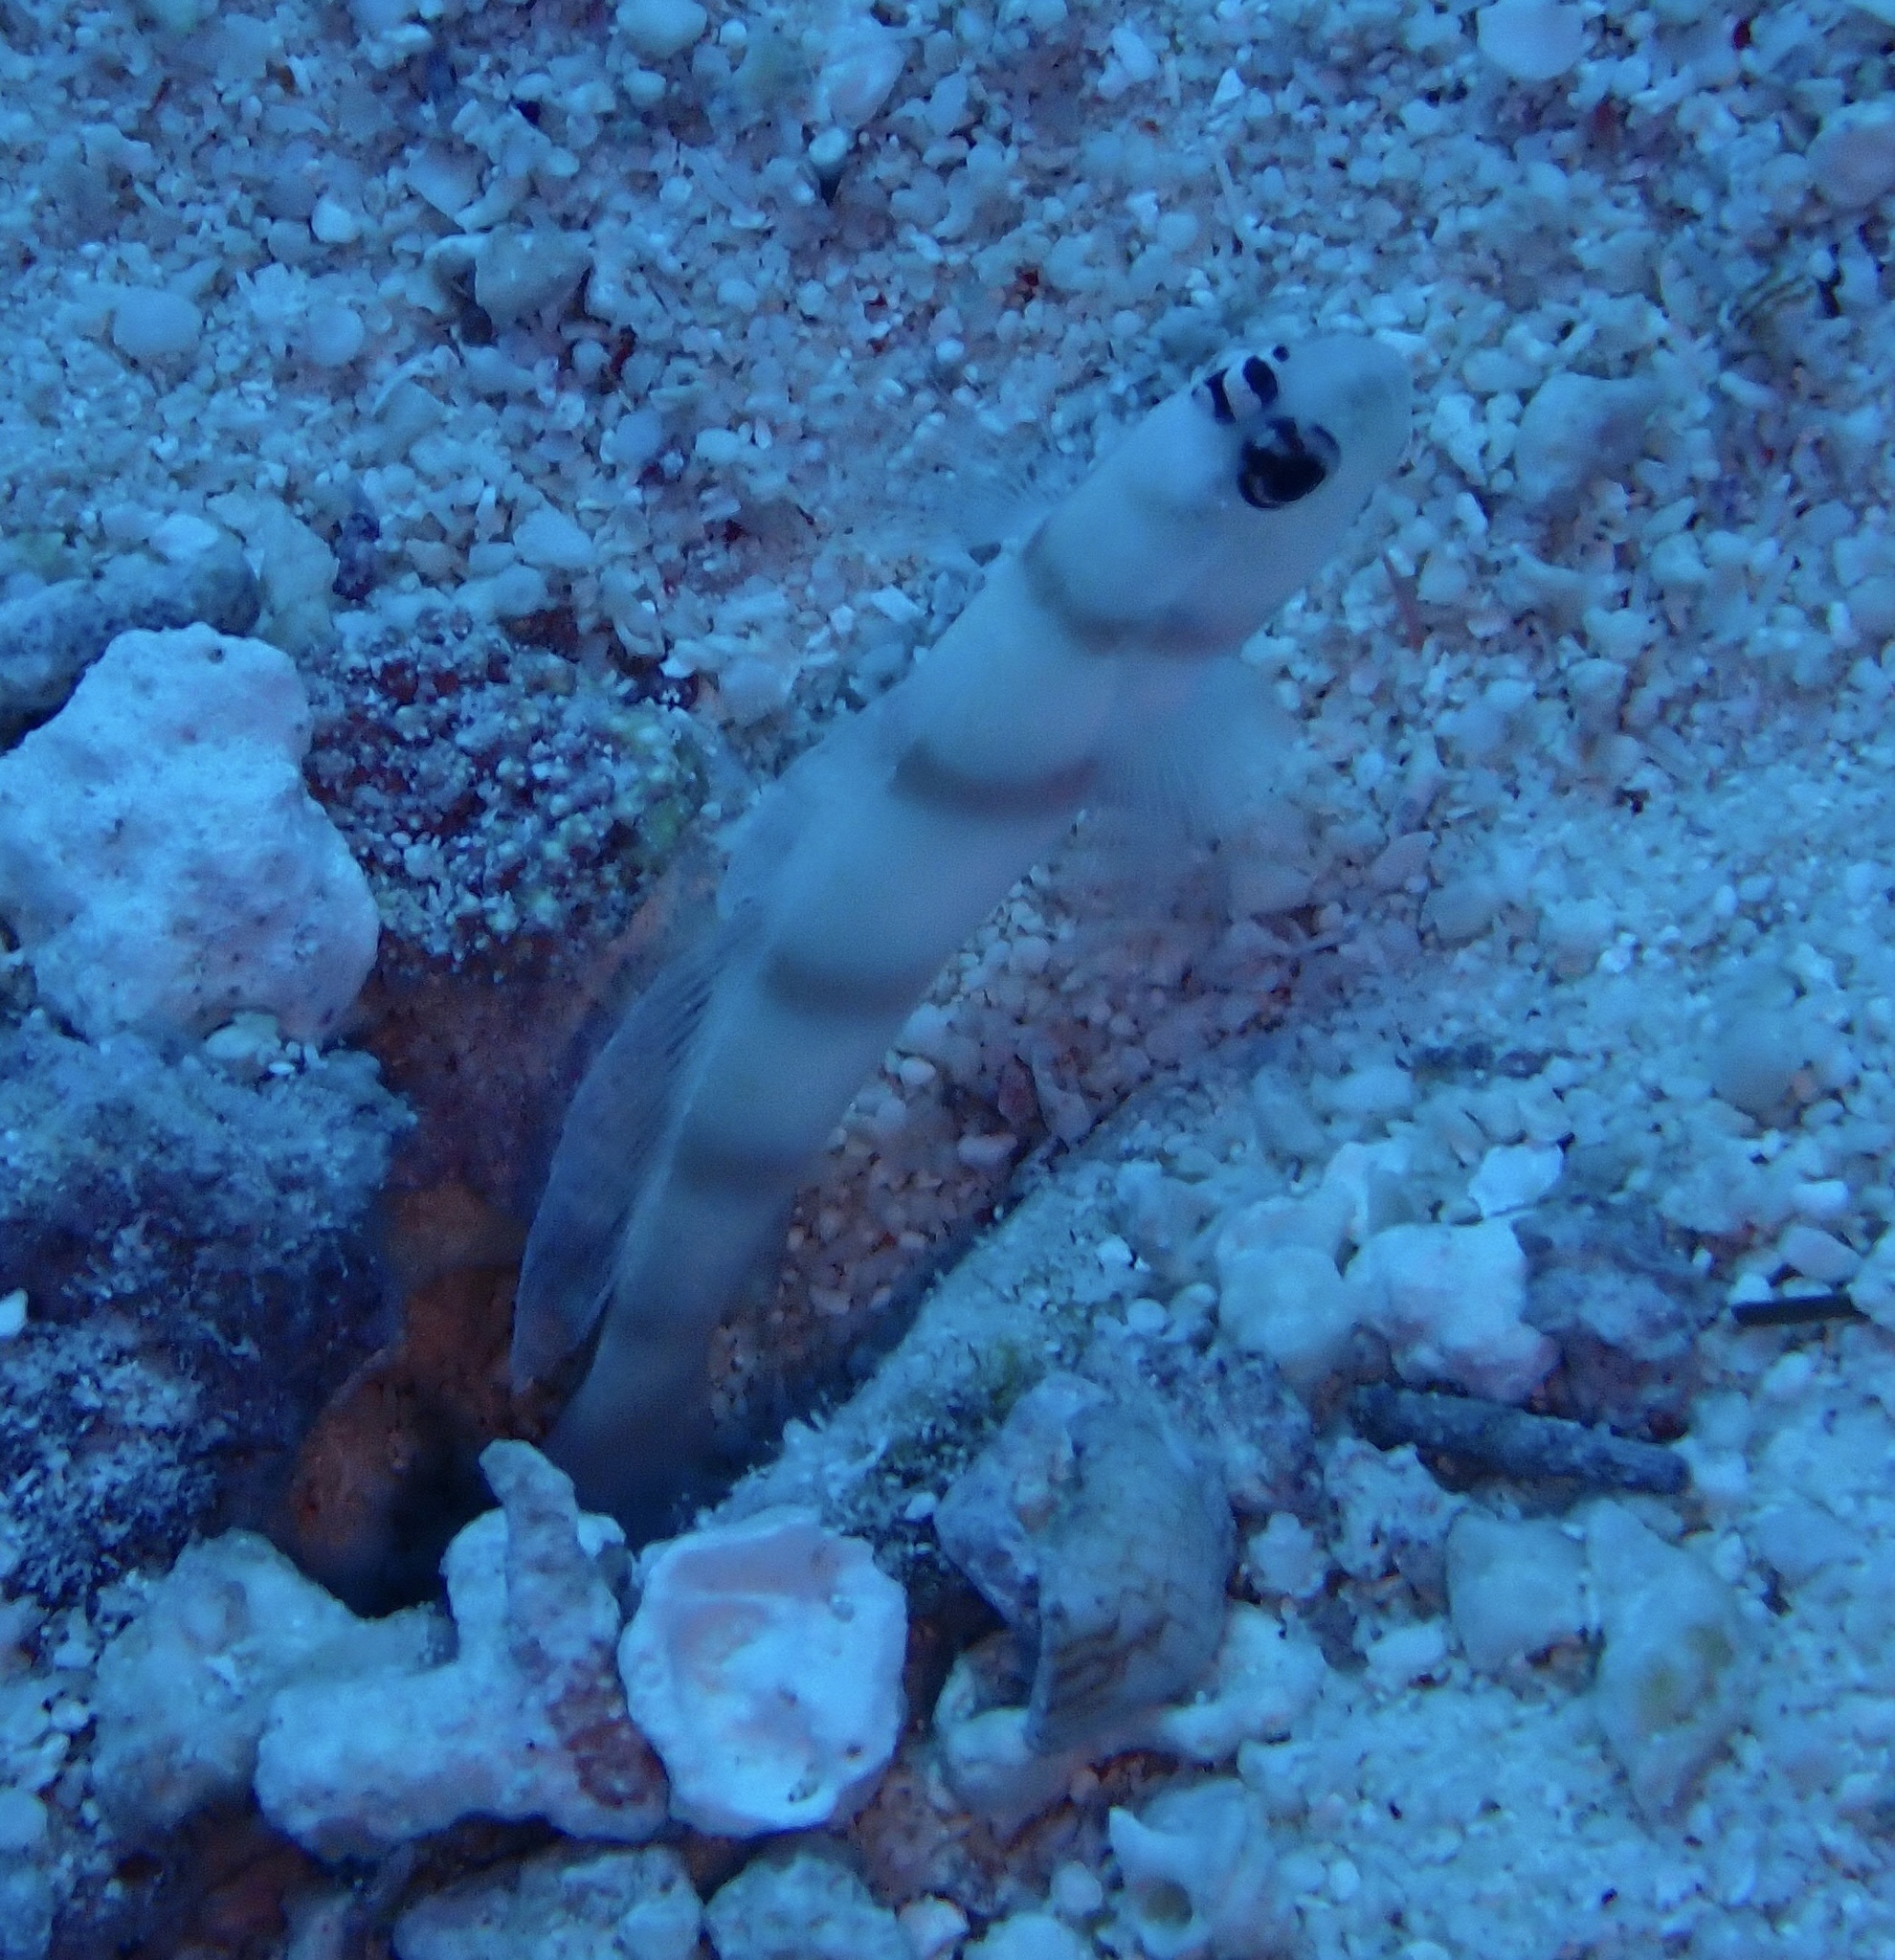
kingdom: Animalia
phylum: Chordata
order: Perciformes
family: Gobiidae
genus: Amblyeleotris
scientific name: Amblyeleotris steinitzi
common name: Steinitz' prawn-goby
